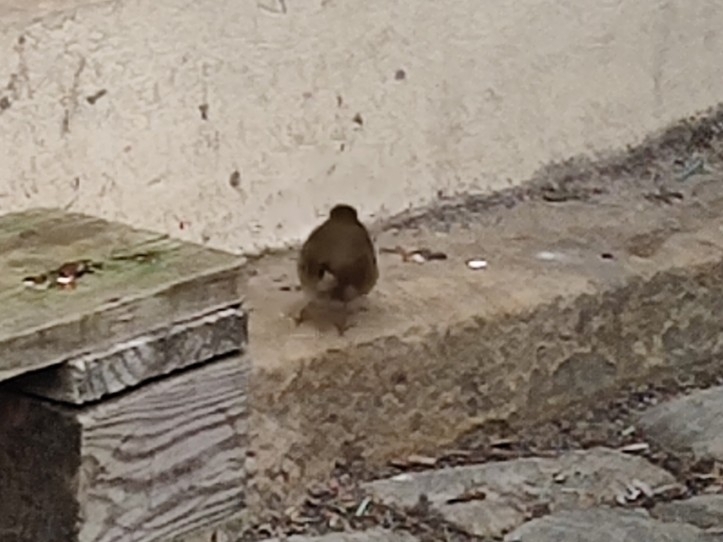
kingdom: Animalia
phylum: Chordata
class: Aves
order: Passeriformes
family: Muscicapidae
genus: Erithacus
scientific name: Erithacus rubecula
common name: European robin
